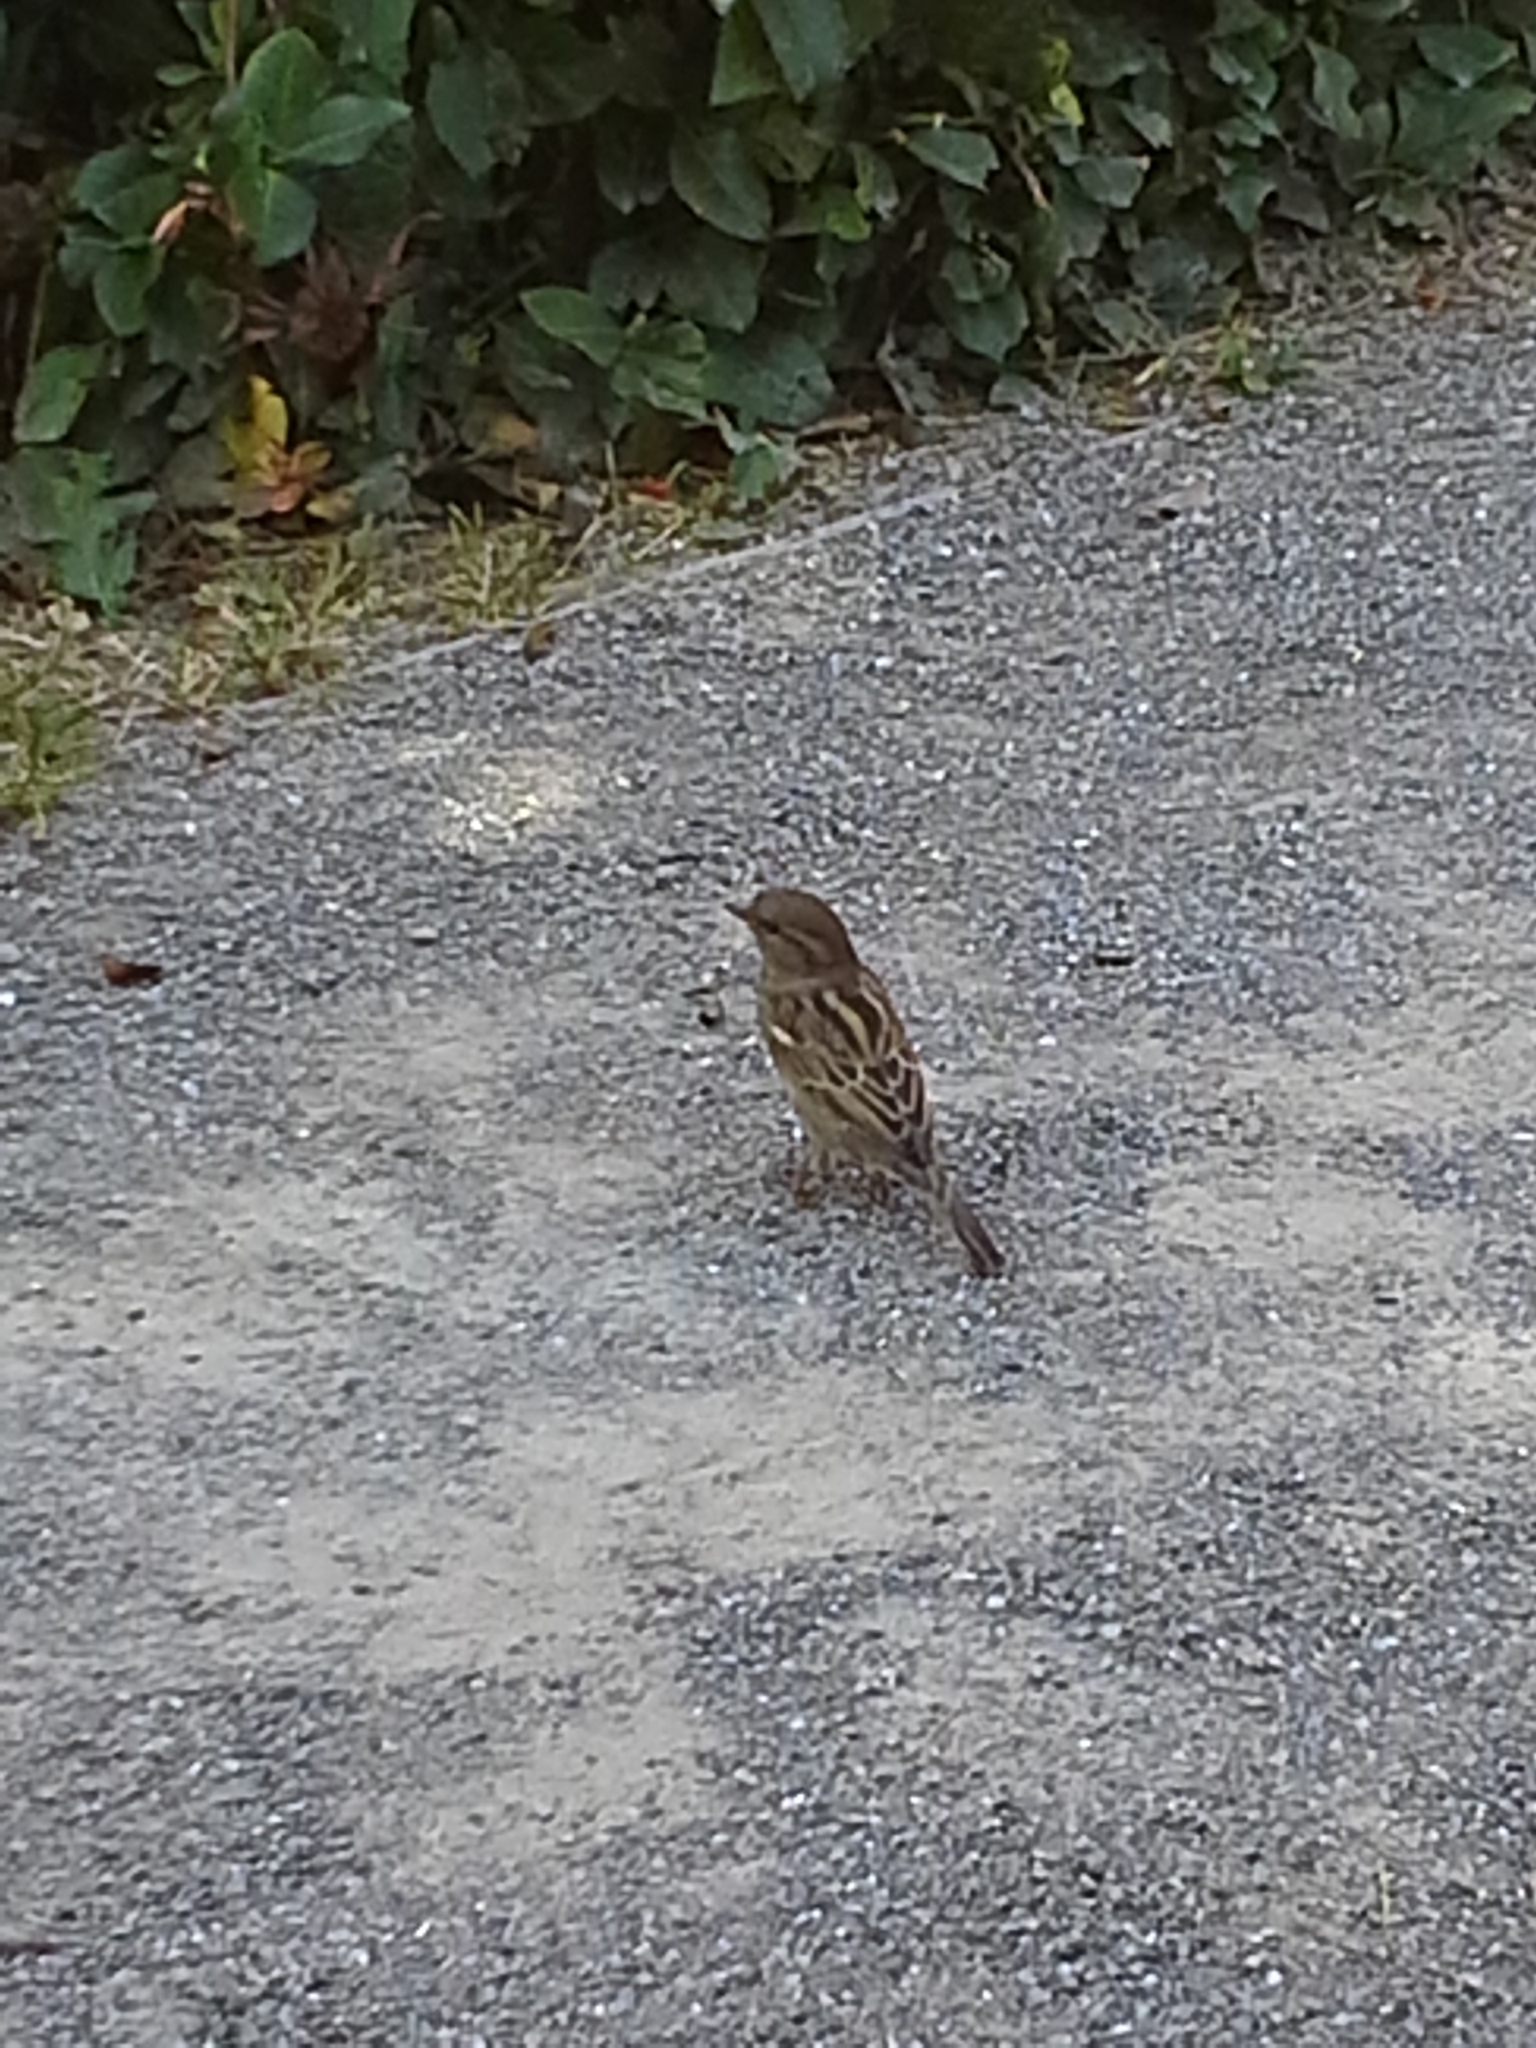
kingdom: Animalia
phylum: Chordata
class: Aves
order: Passeriformes
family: Passeridae
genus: Passer
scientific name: Passer domesticus
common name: House sparrow
